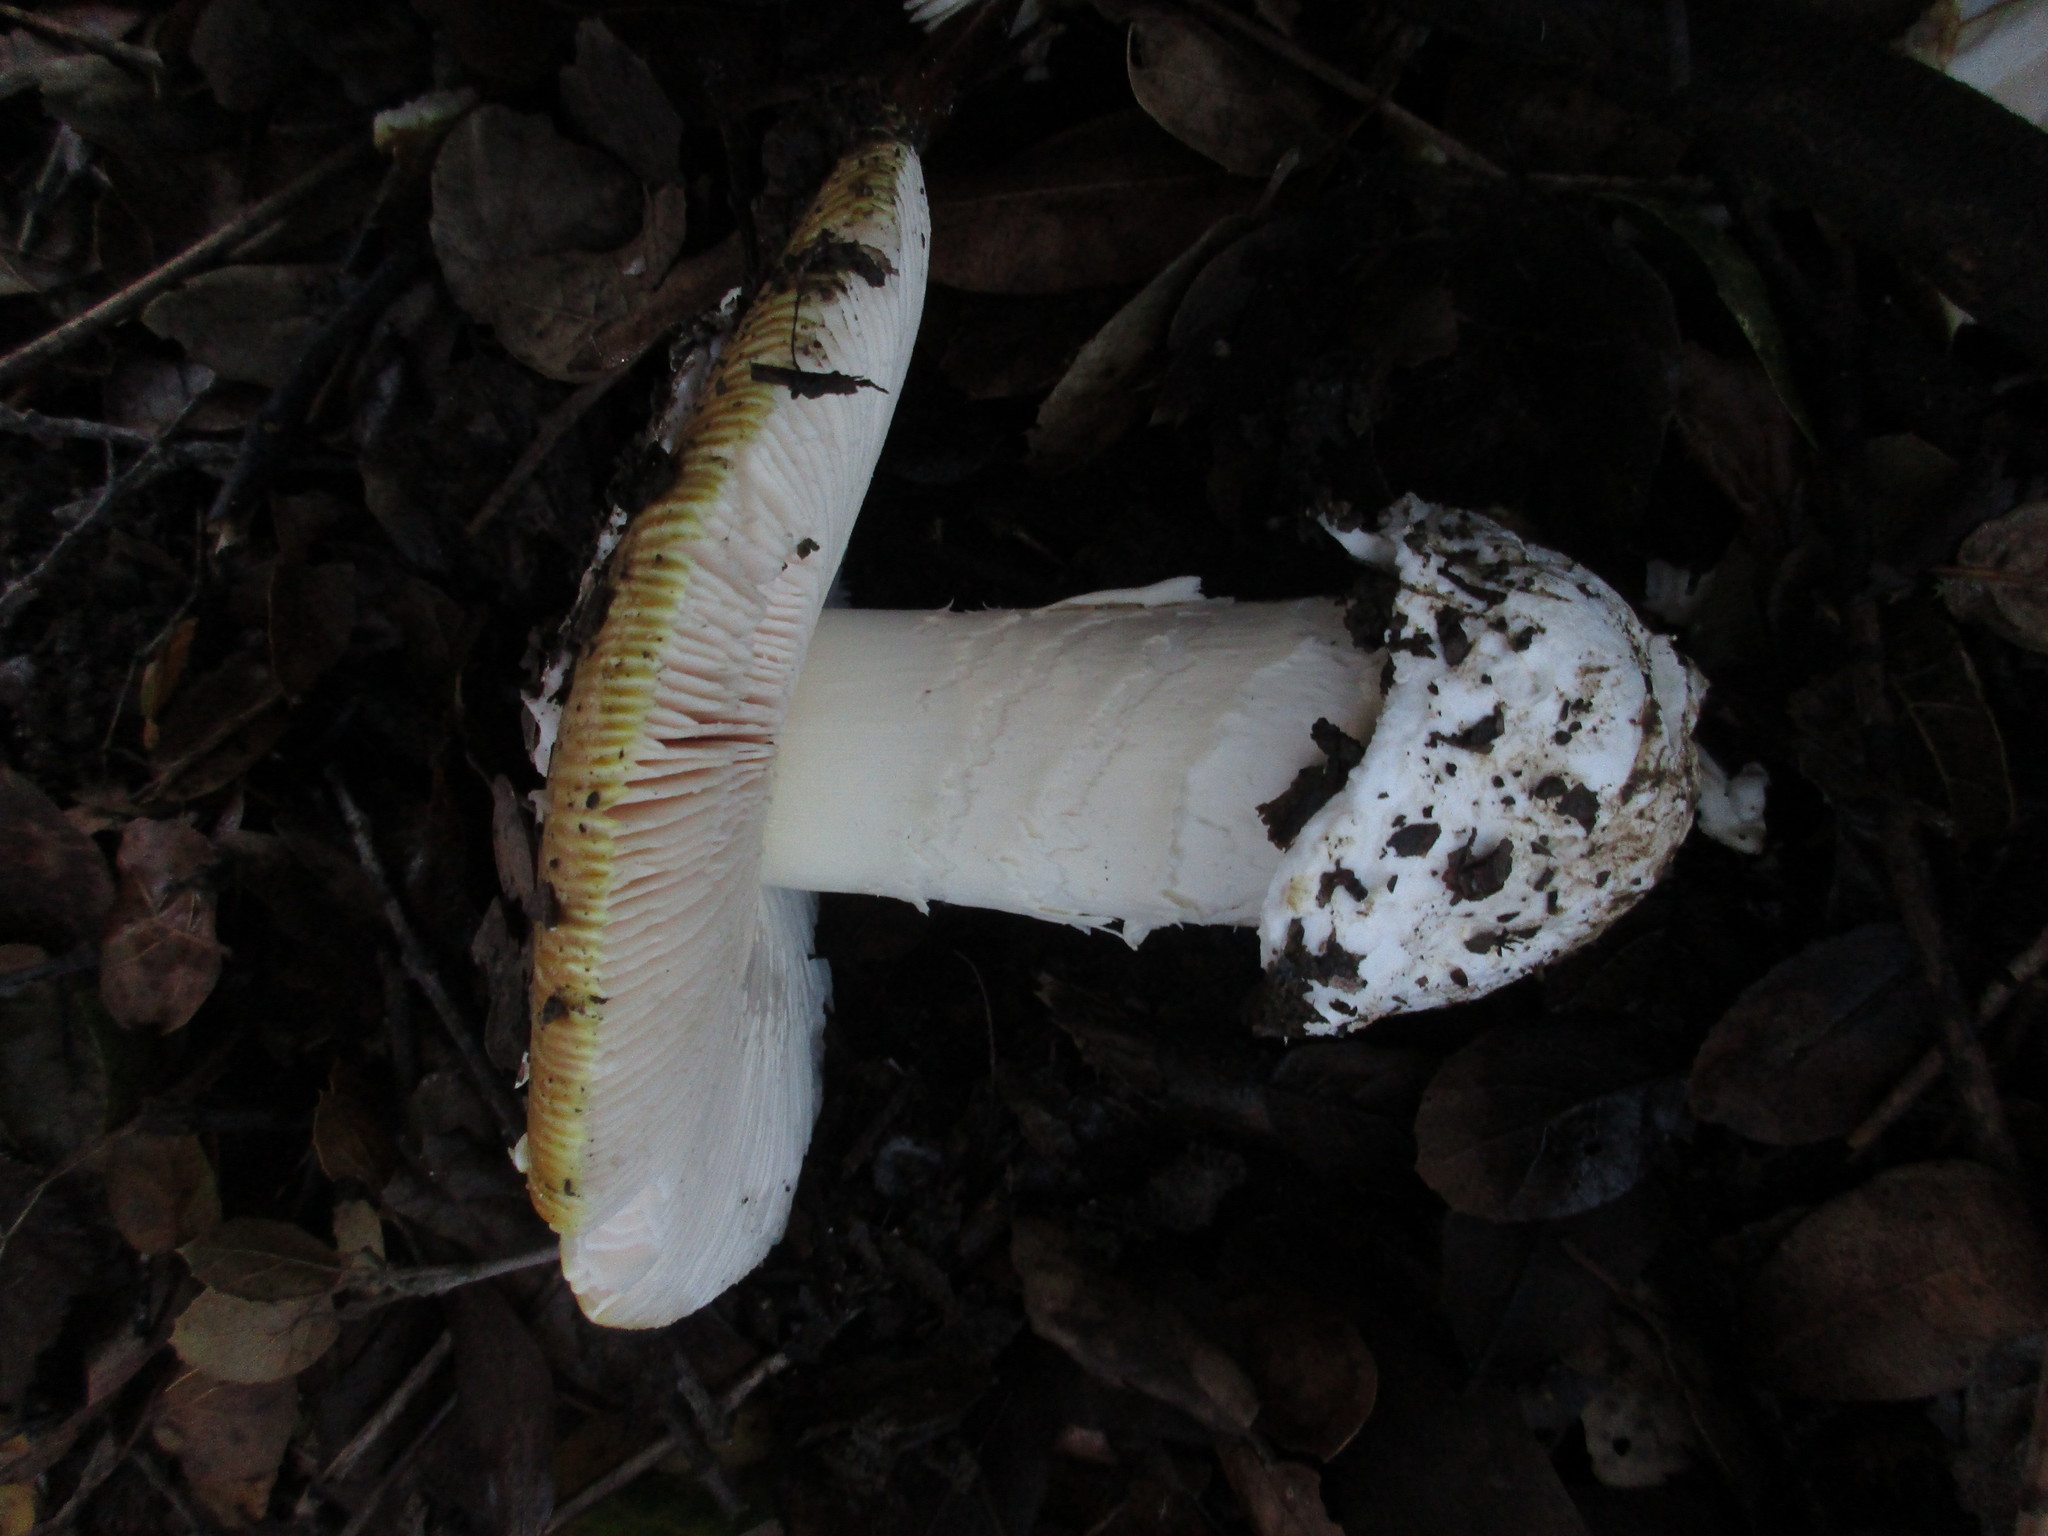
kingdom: Fungi
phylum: Basidiomycota
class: Agaricomycetes
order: Agaricales
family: Amanitaceae
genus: Amanita
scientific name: Amanita calyptroderma
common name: Coccora
